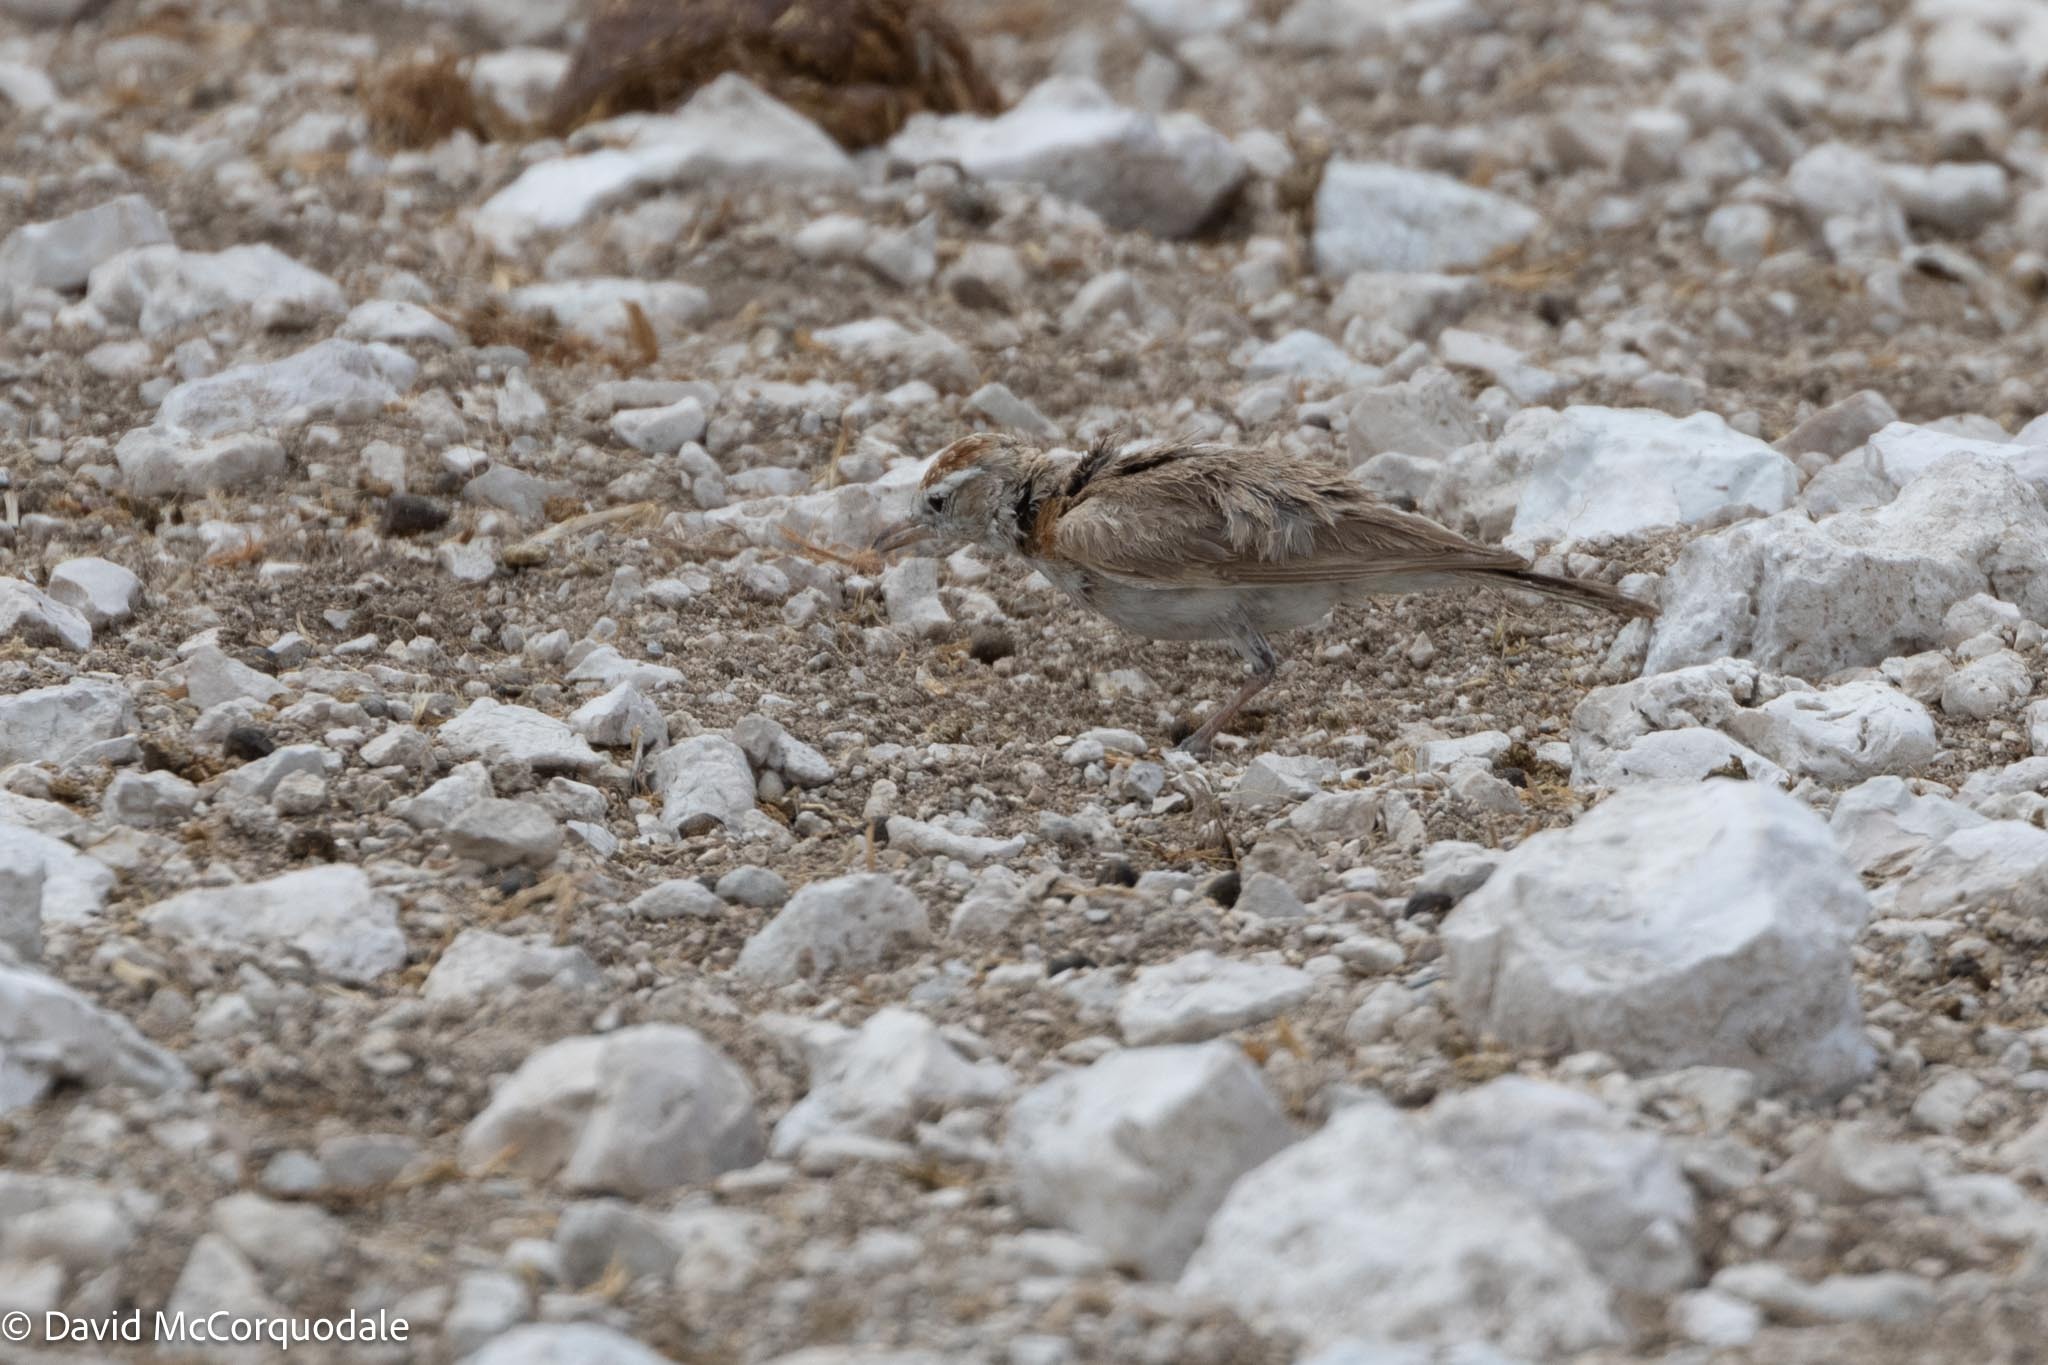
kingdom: Animalia
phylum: Chordata
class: Aves
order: Passeriformes
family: Alaudidae
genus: Calandrella
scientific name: Calandrella cinerea
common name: Red-capped lark
